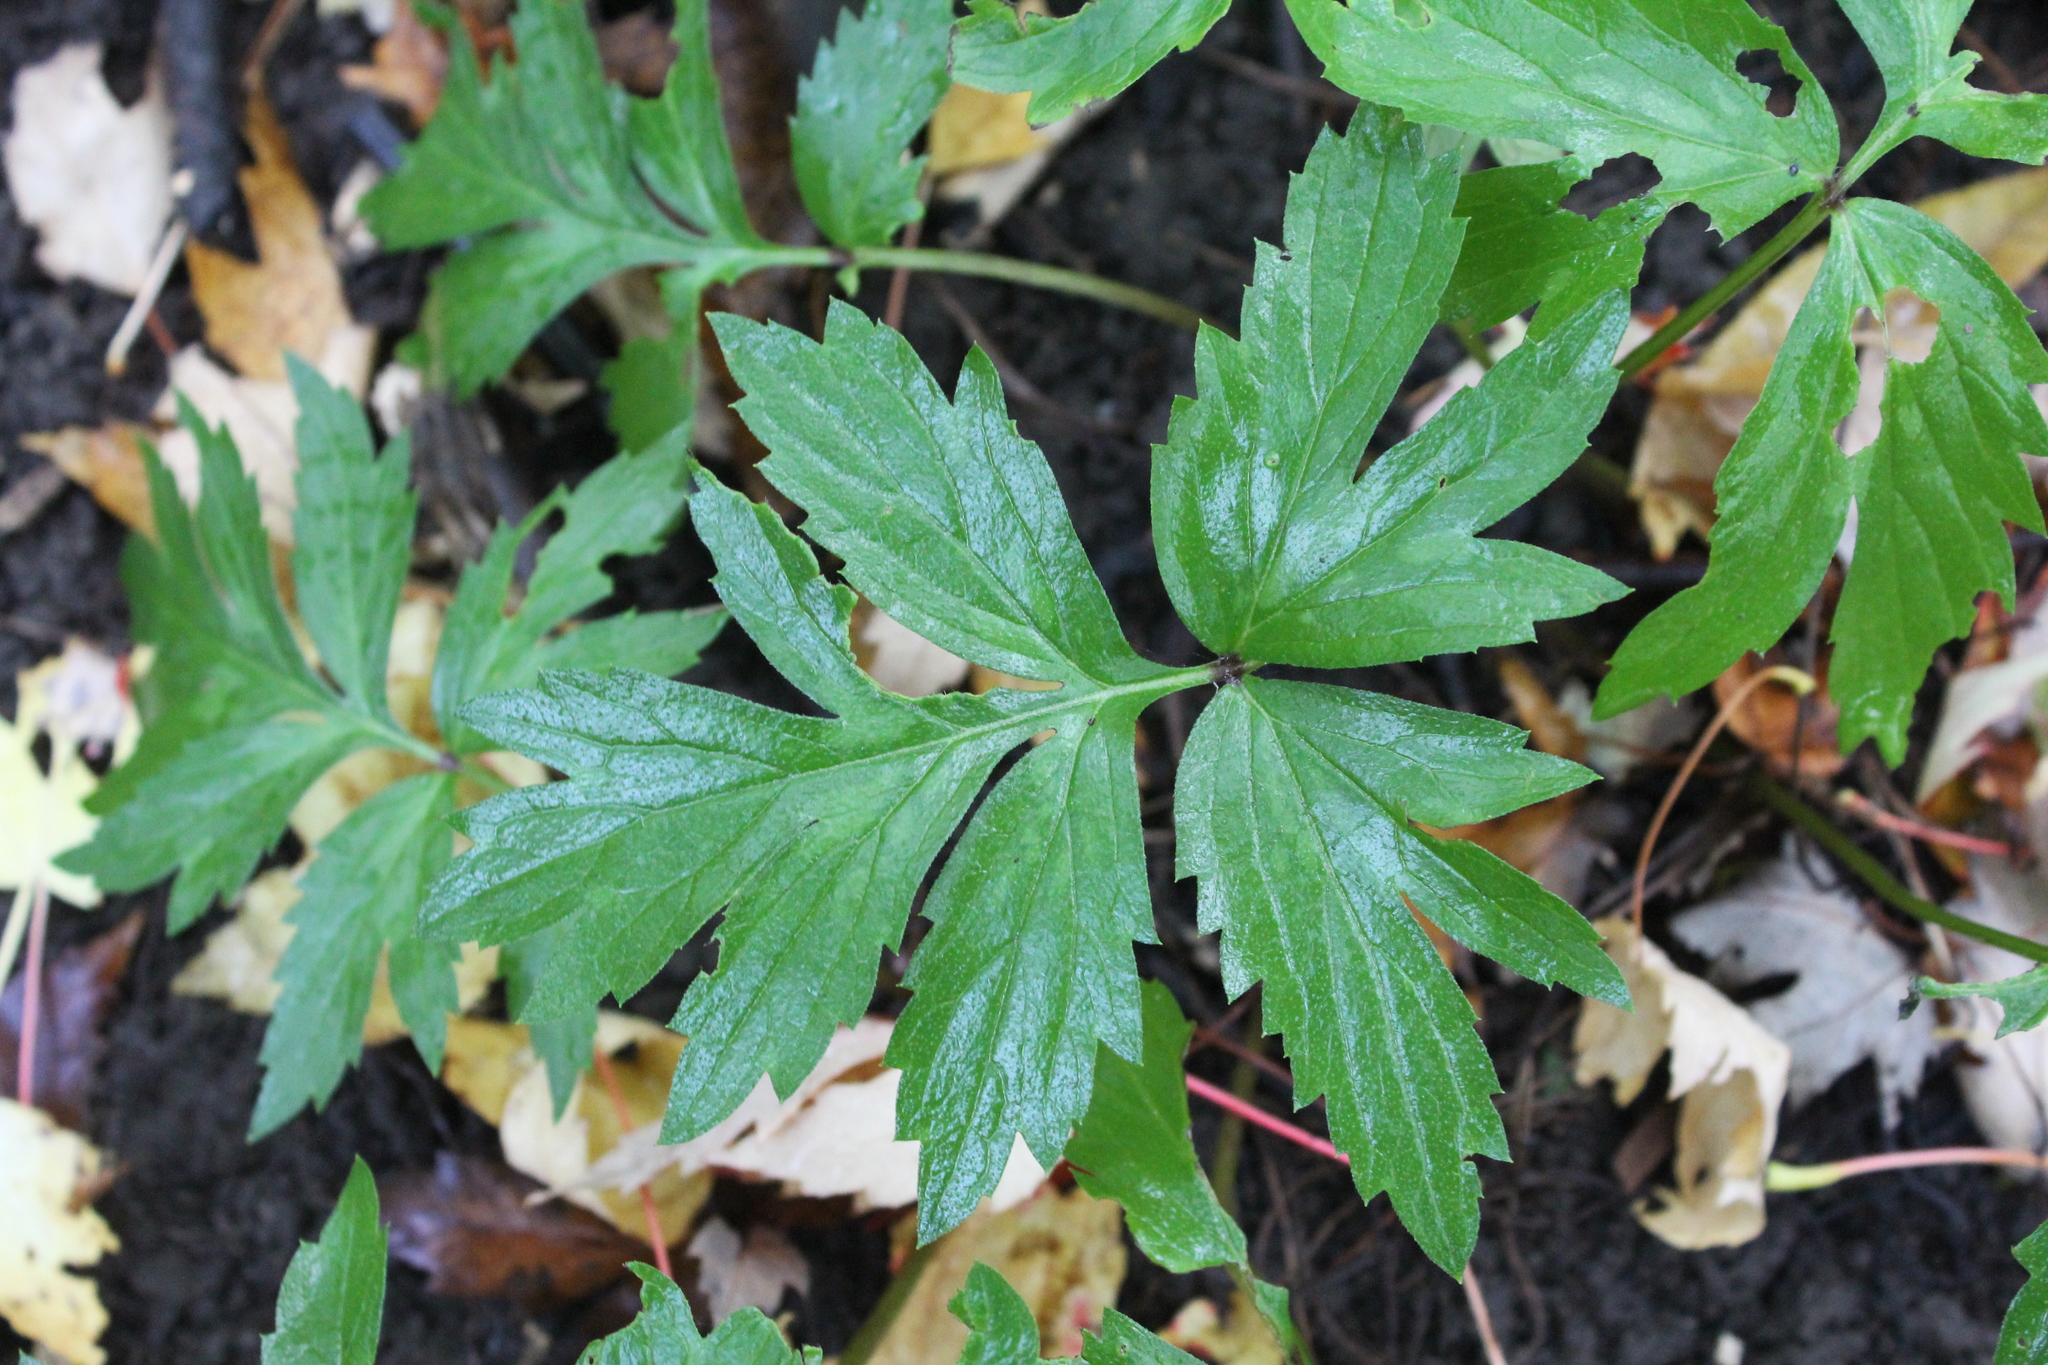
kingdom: Plantae
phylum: Tracheophyta
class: Magnoliopsida
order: Boraginales
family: Hydrophyllaceae
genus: Hydrophyllum
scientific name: Hydrophyllum virginianum
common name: Virginia waterleaf
